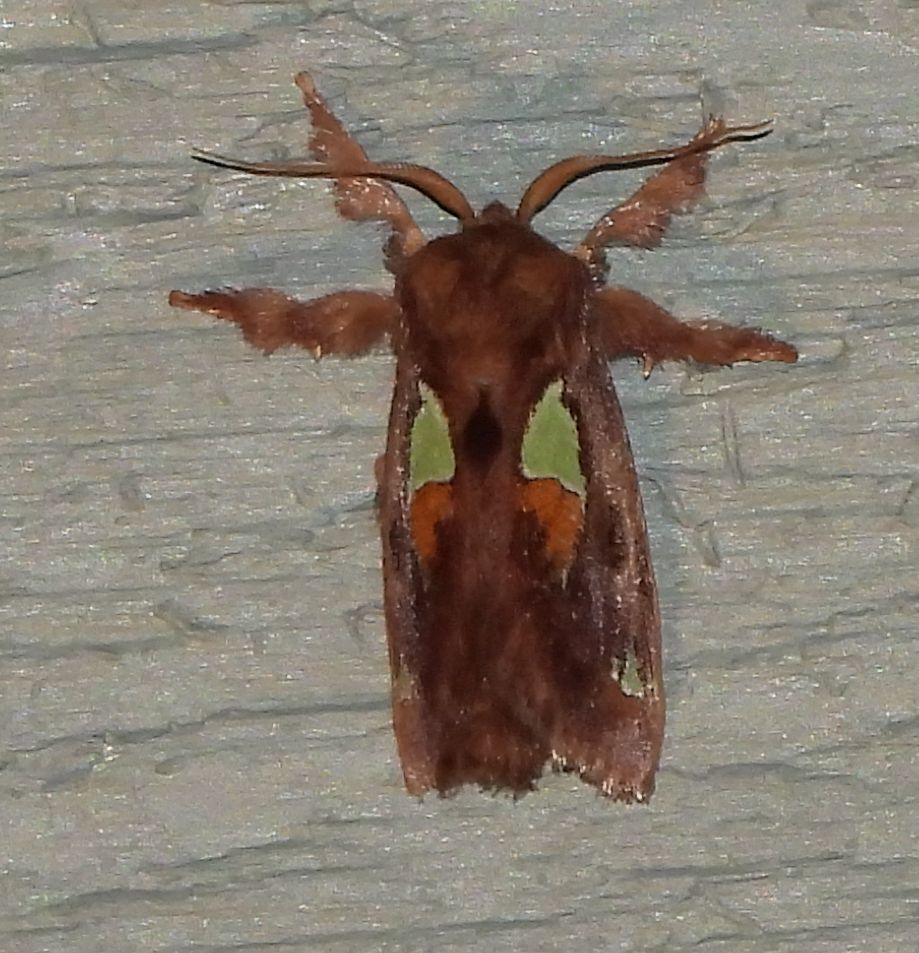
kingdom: Animalia
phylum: Arthropoda
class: Insecta
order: Lepidoptera
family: Limacodidae
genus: Euclea
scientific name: Euclea delphinii
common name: Spiny oak-slug moth
